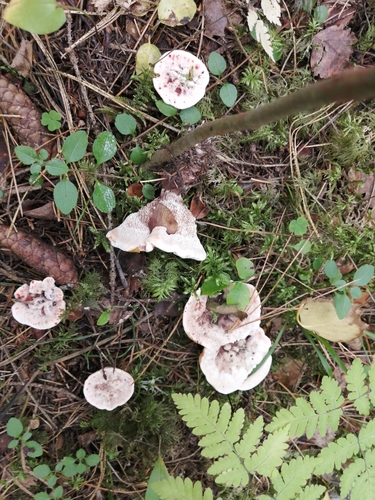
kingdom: Fungi
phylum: Basidiomycota
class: Agaricomycetes
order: Thelephorales
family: Bankeraceae
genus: Hydnellum
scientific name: Hydnellum peckii
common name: Devil's tooth
